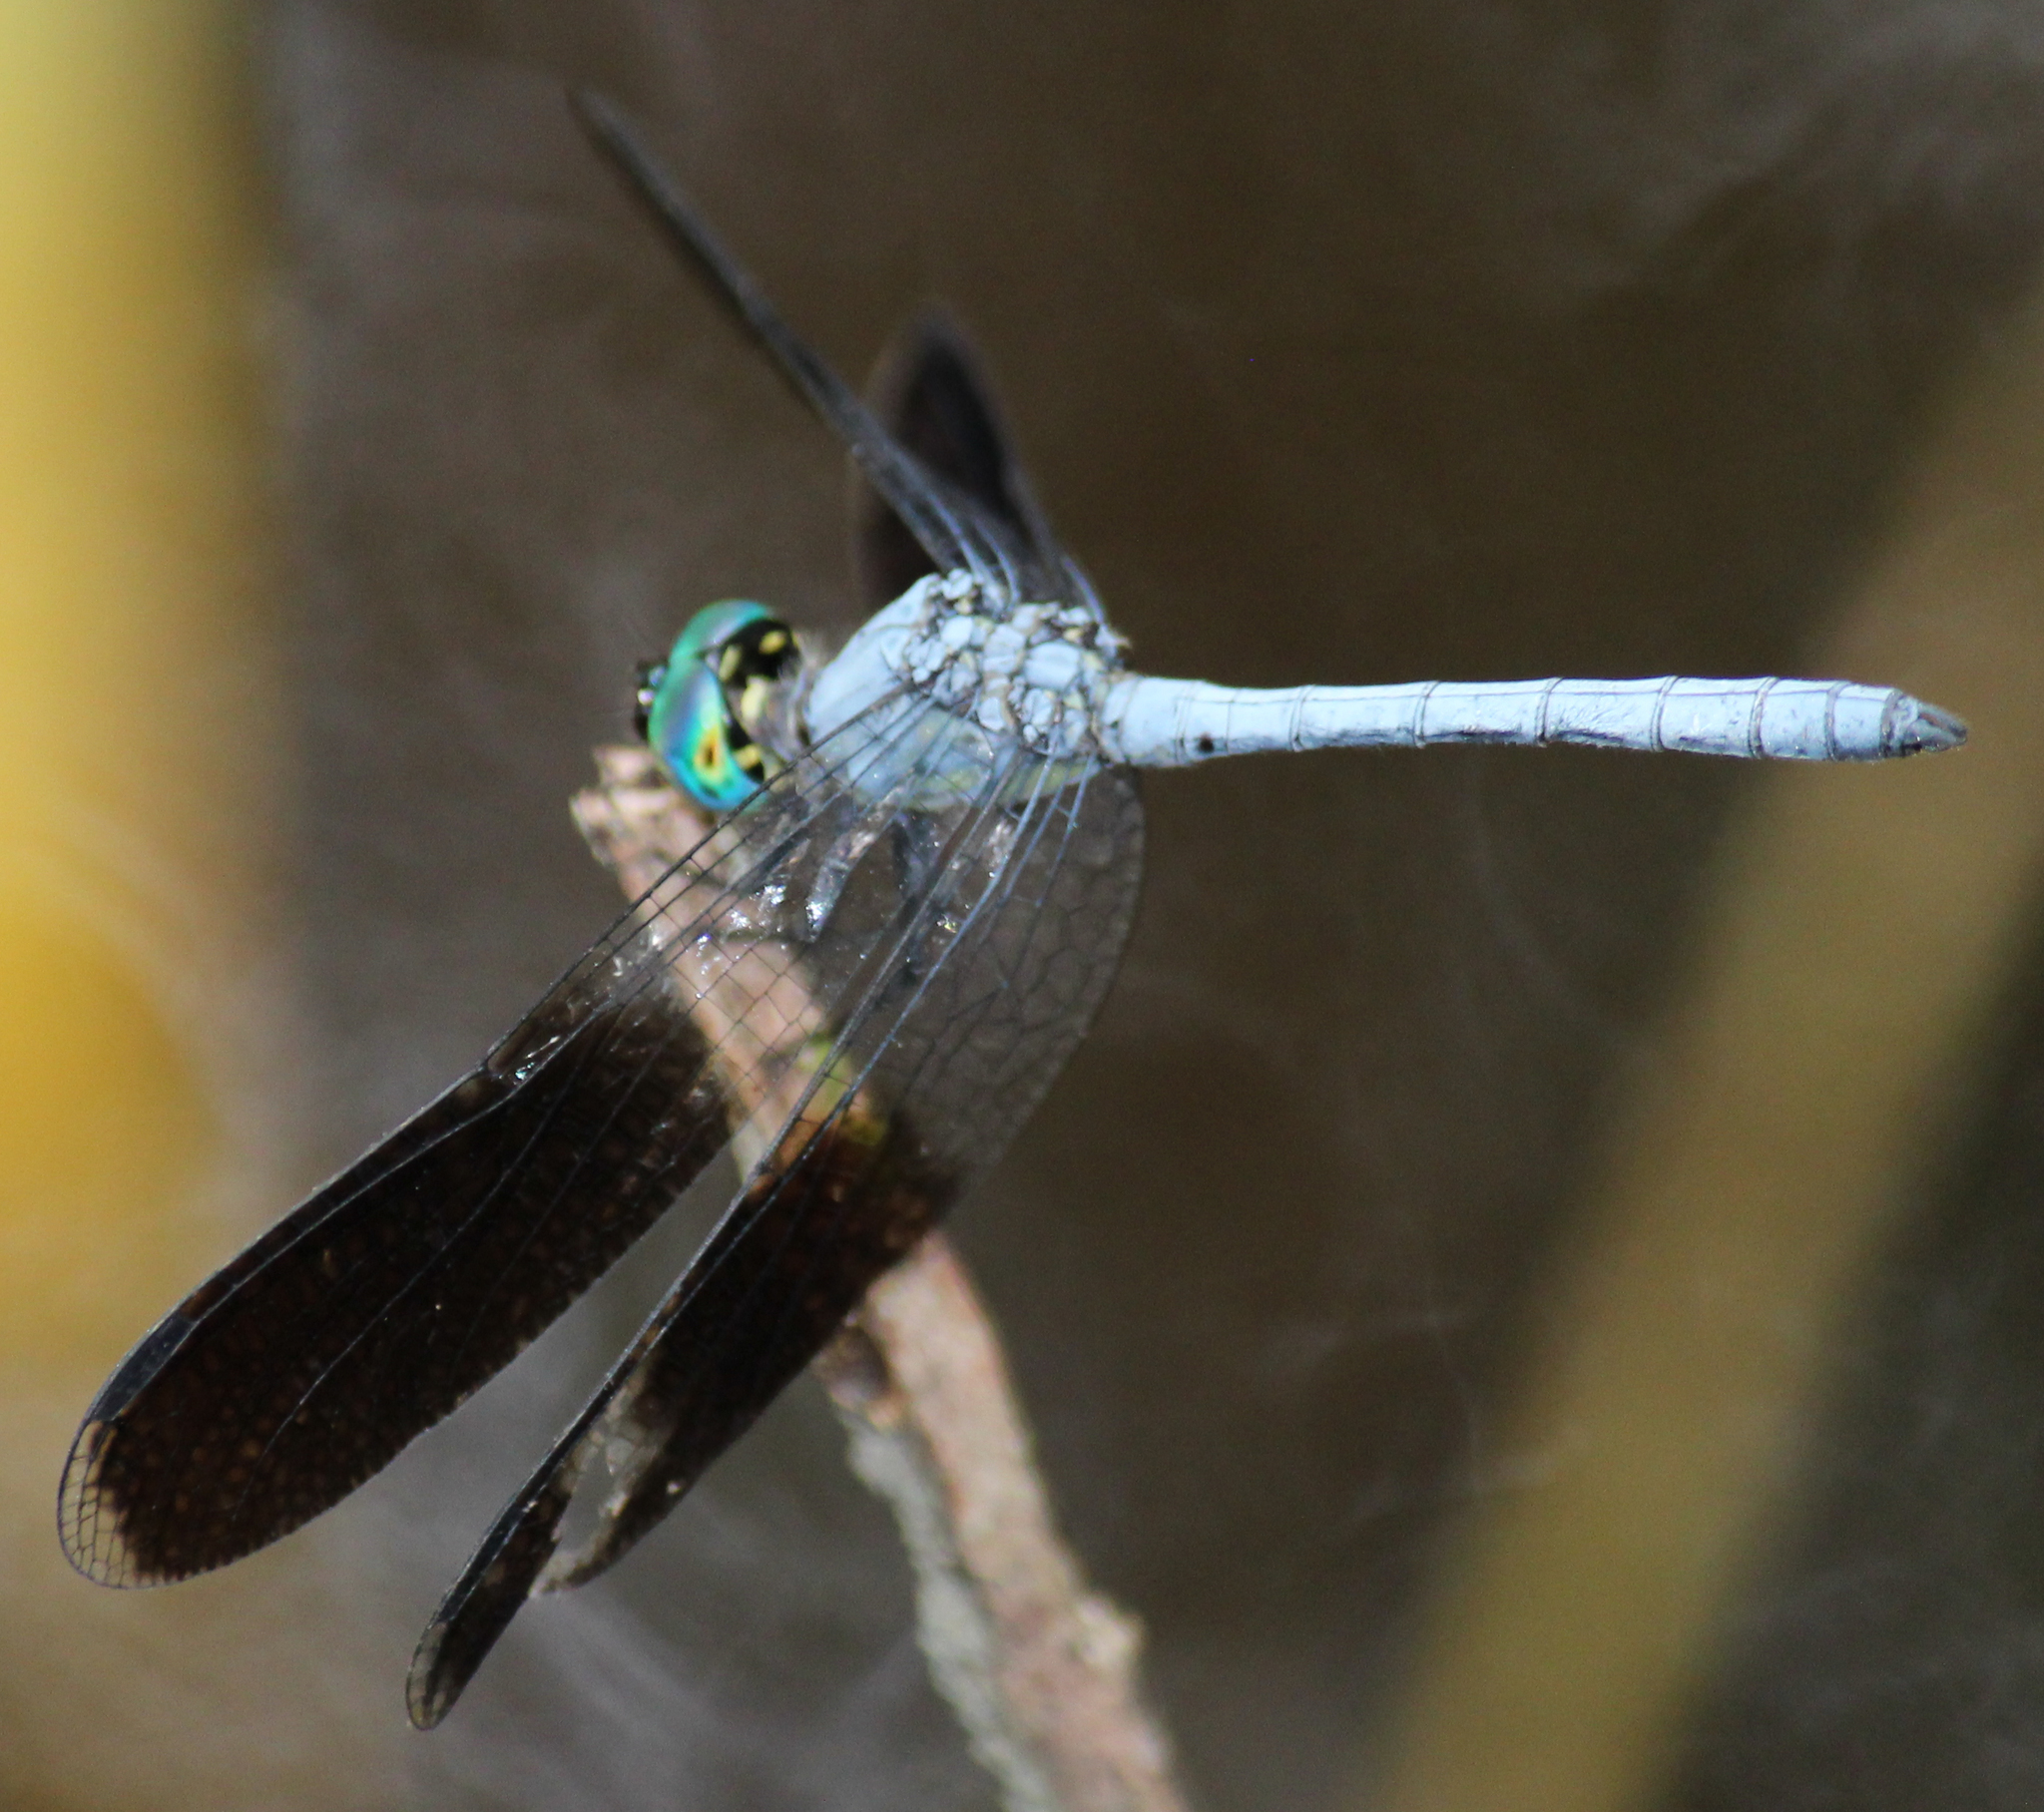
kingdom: Animalia
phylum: Arthropoda
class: Insecta
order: Odonata
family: Libellulidae
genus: Tetrathemis
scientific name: Tetrathemis polleni
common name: Black-splashed elf
